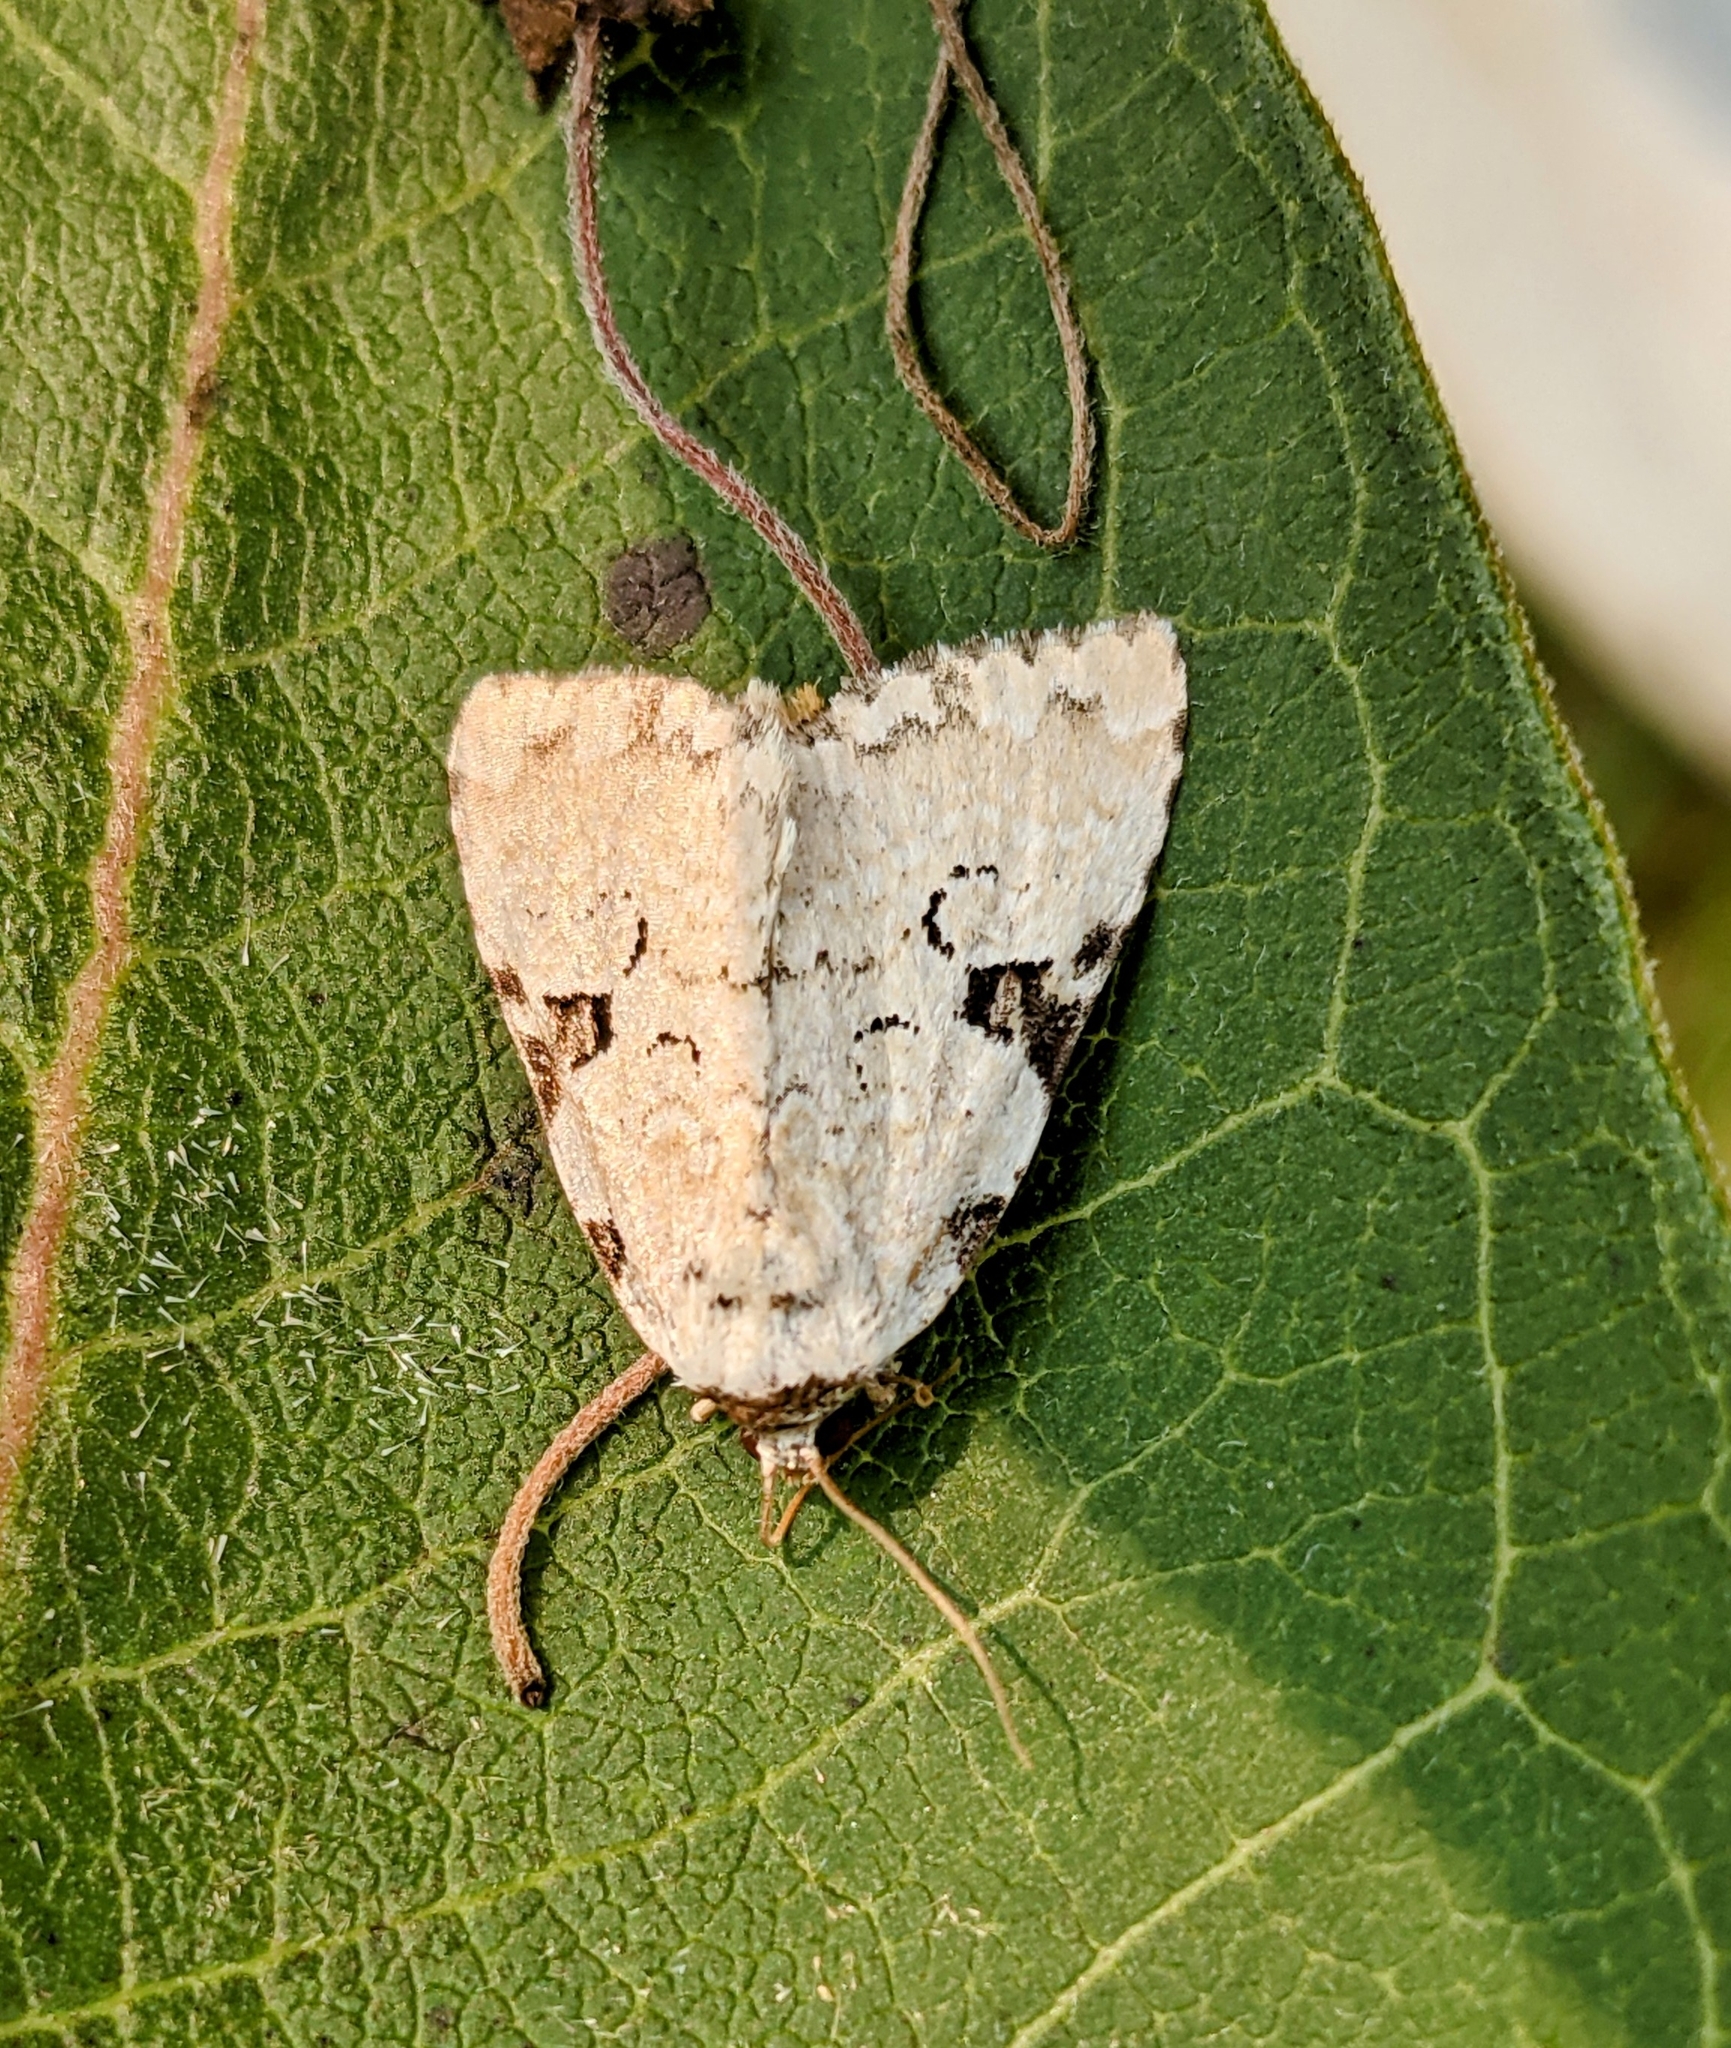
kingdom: Animalia
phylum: Arthropoda
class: Insecta
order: Lepidoptera
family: Noctuidae
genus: Leuconycta
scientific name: Leuconycta diphteroides
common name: Green leuconycta moth
